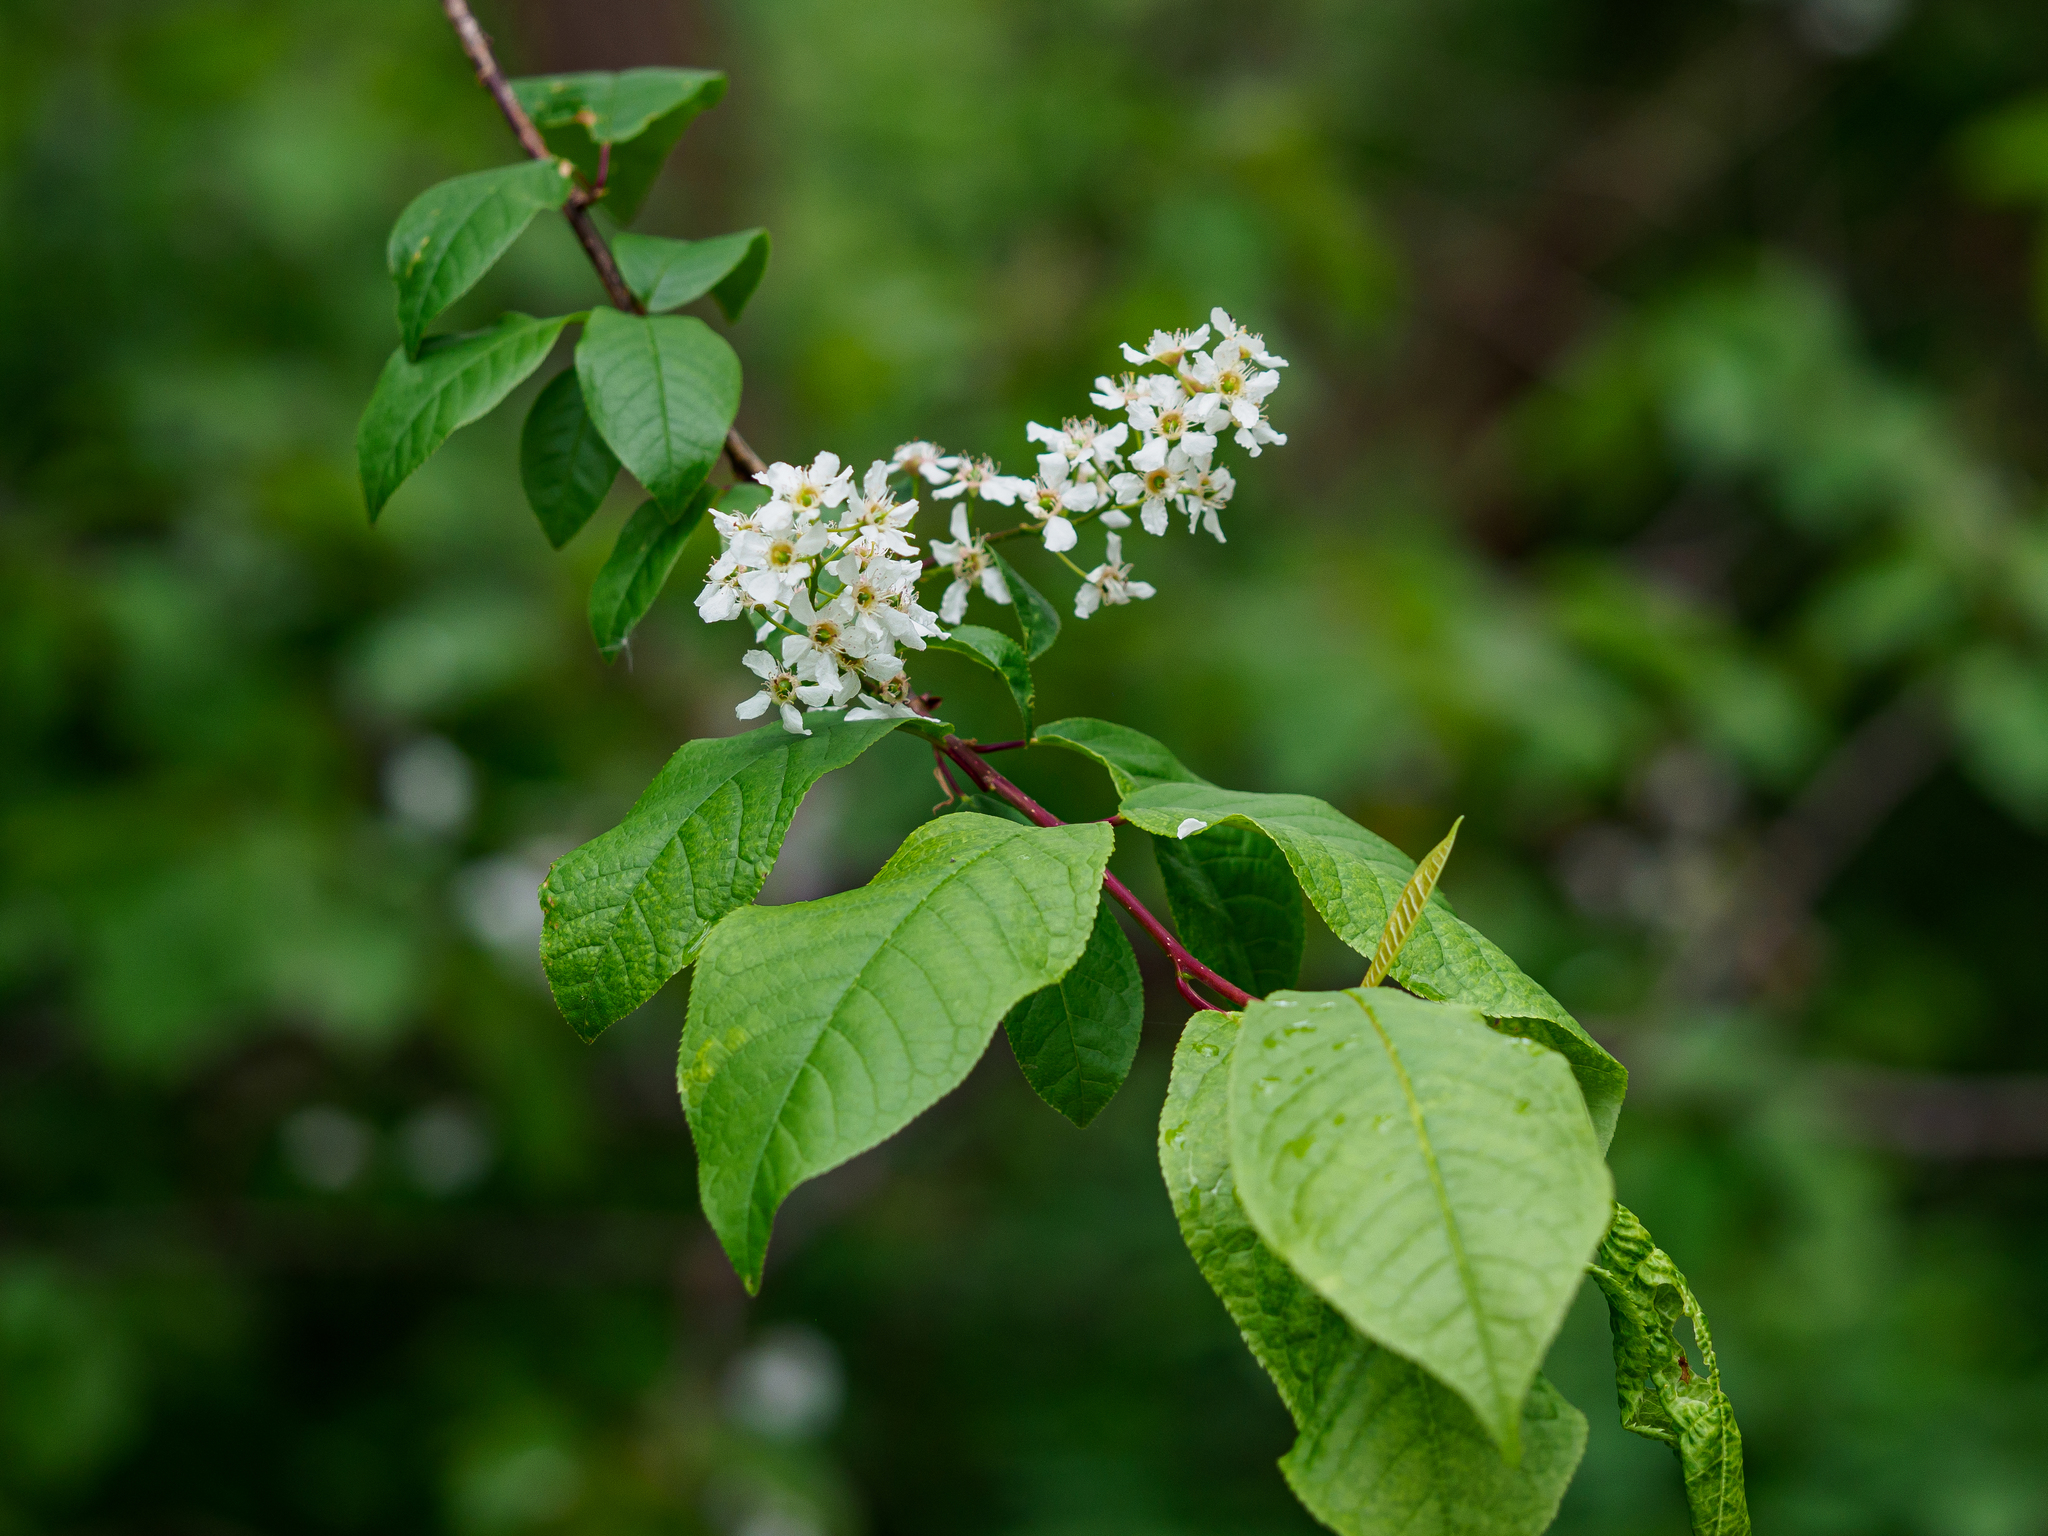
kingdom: Plantae
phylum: Tracheophyta
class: Magnoliopsida
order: Rosales
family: Rosaceae
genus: Prunus
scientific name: Prunus padus
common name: Bird cherry
